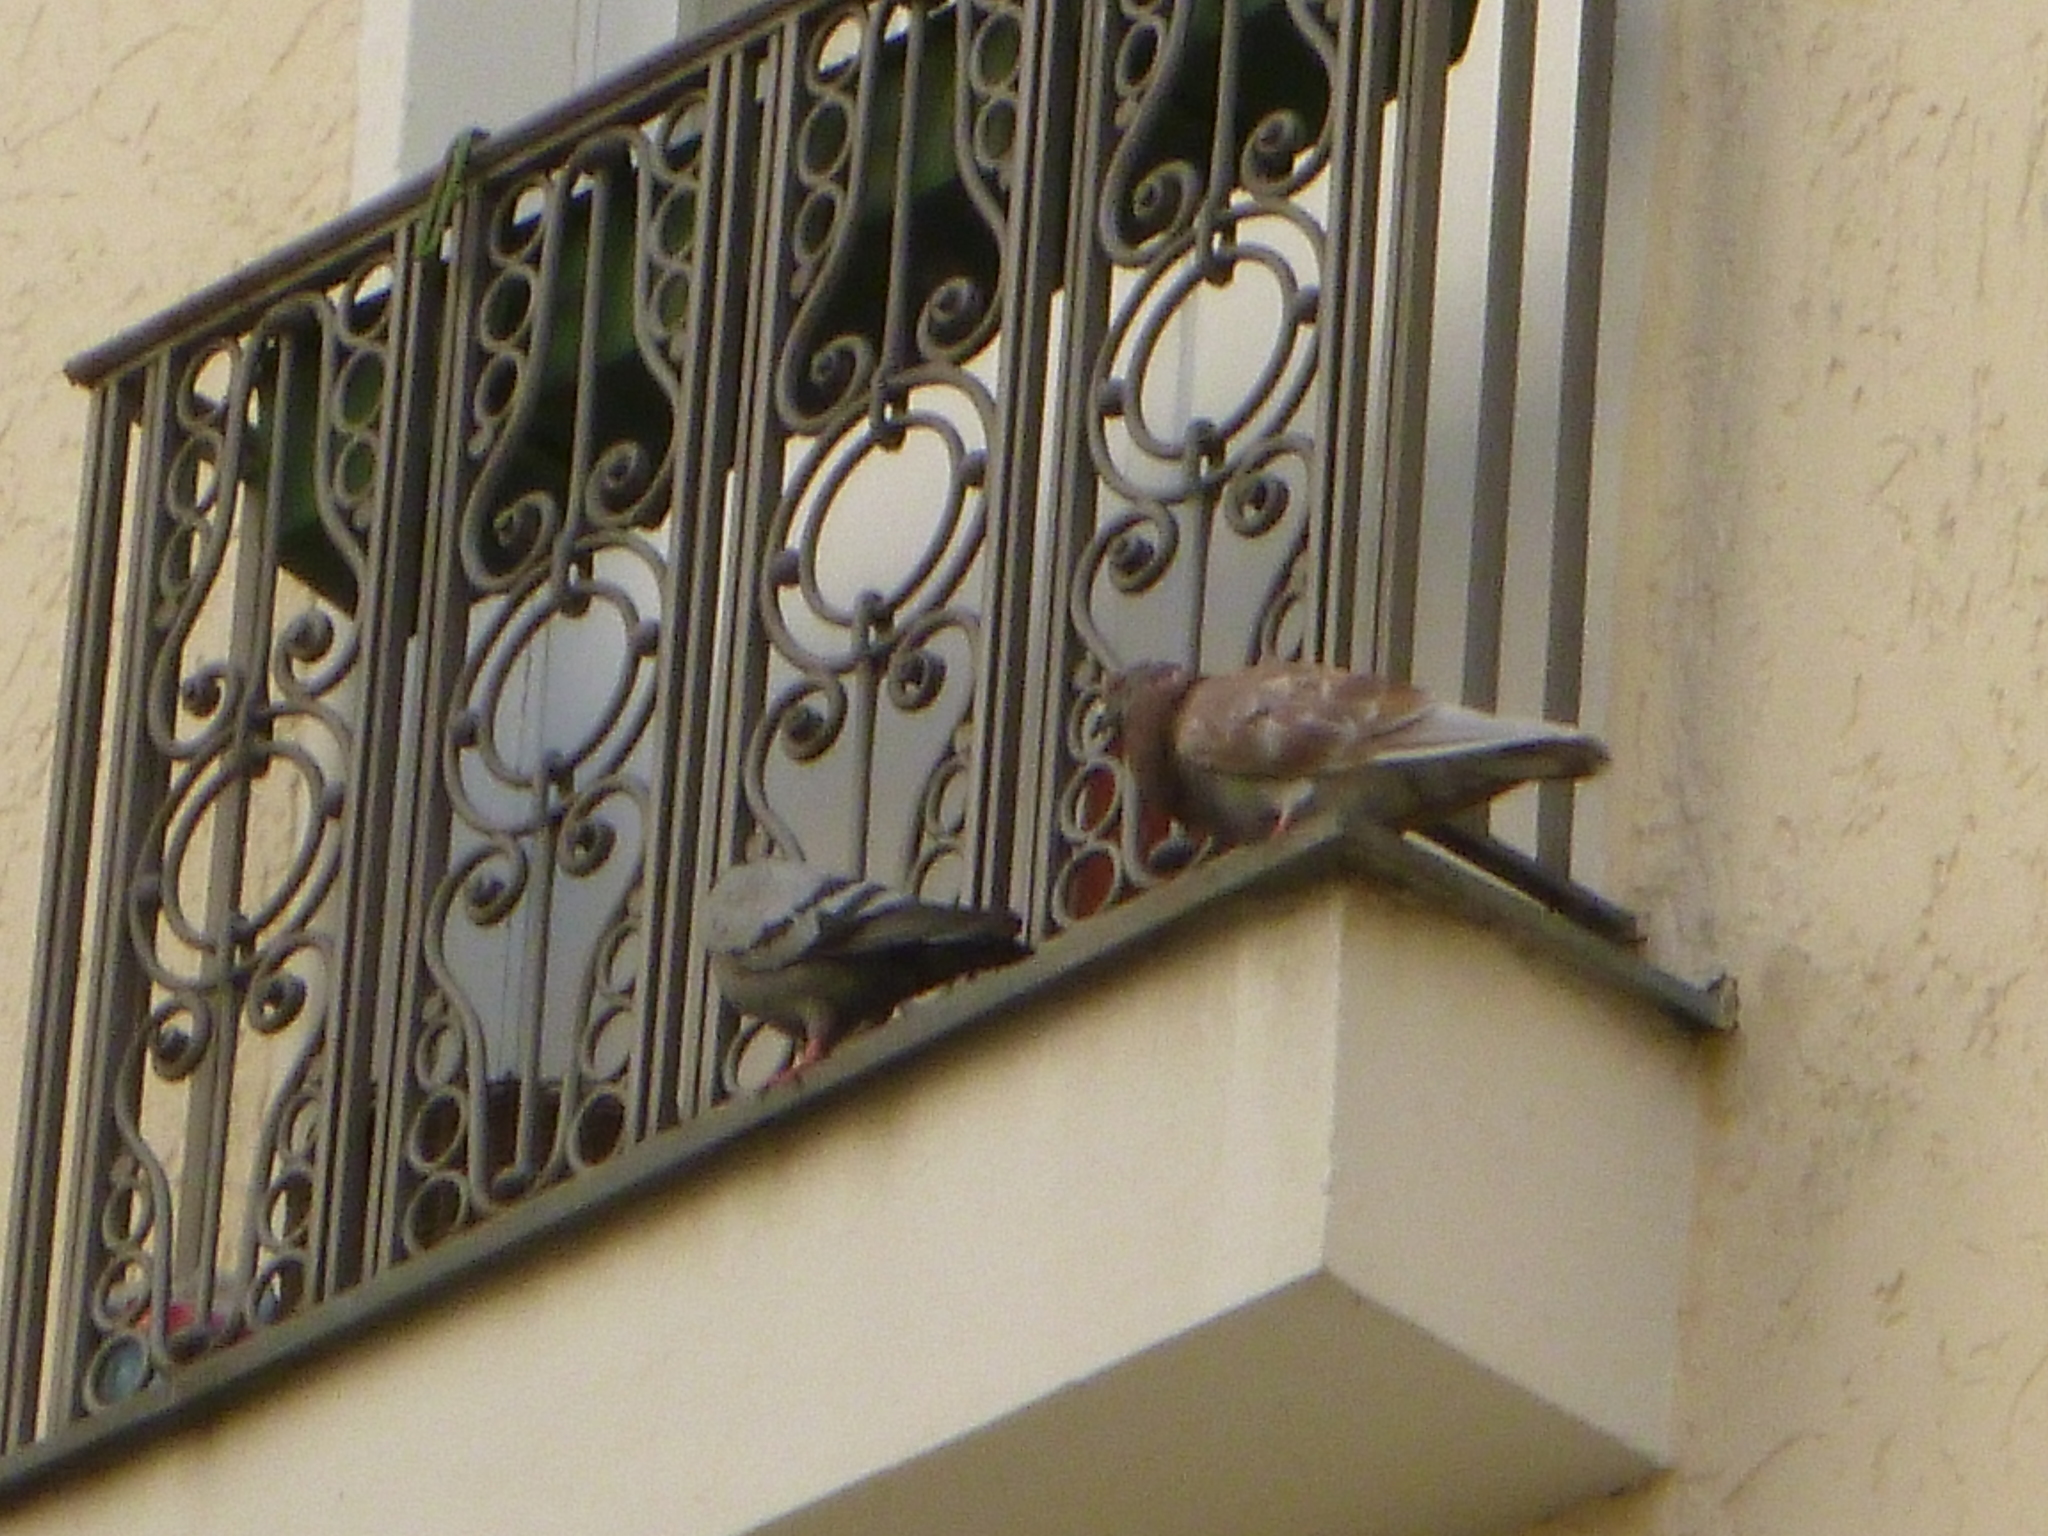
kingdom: Animalia
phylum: Chordata
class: Aves
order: Columbiformes
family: Columbidae
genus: Columba
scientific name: Columba livia
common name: Rock pigeon
